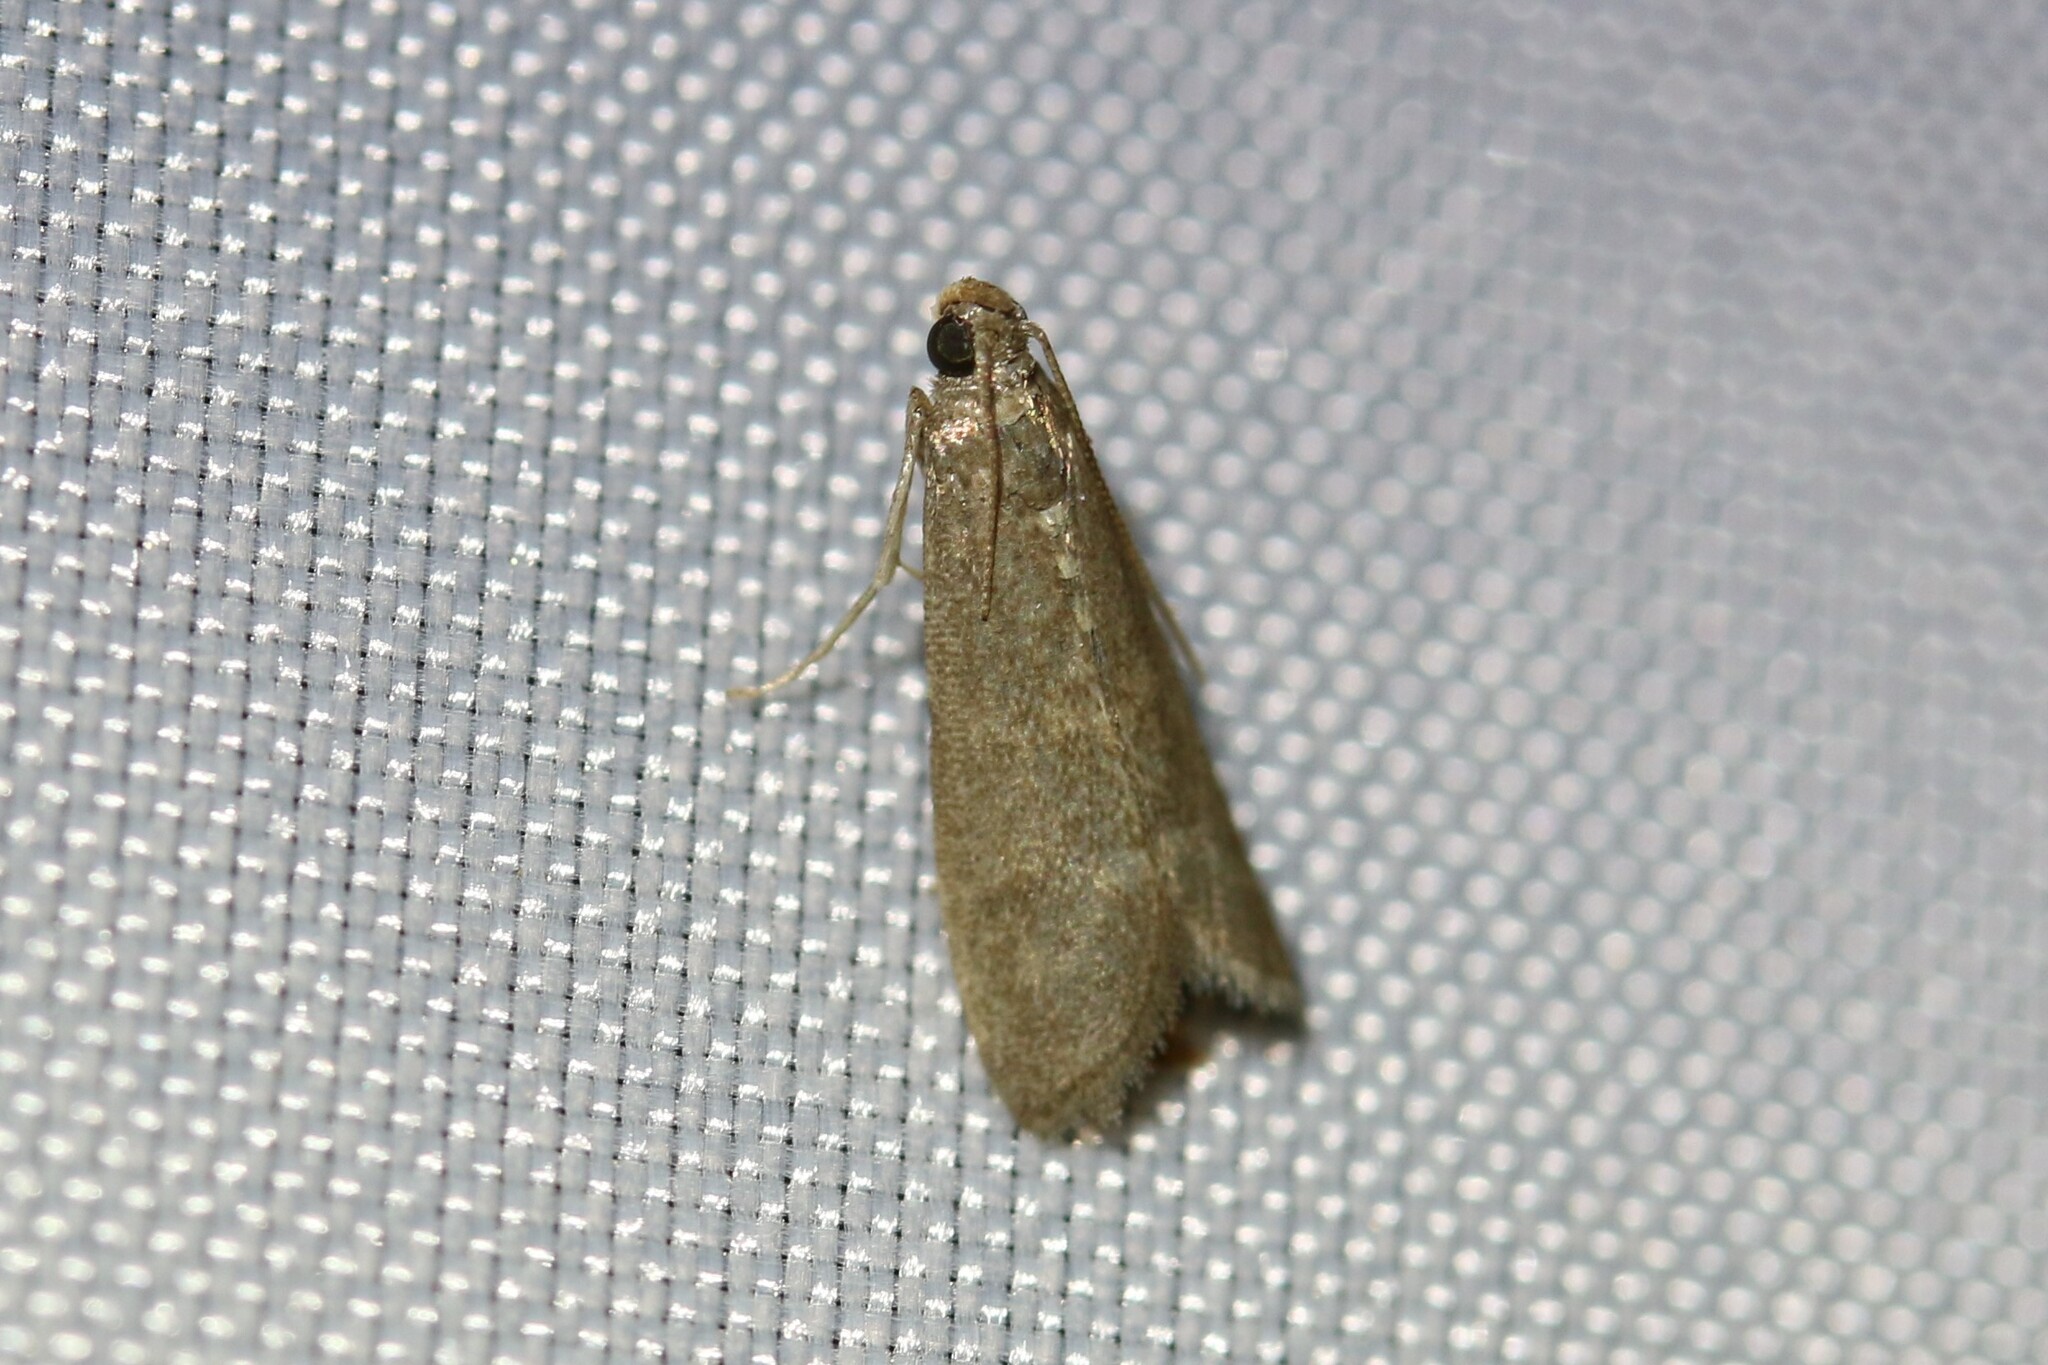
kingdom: Animalia
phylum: Arthropoda
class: Insecta
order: Lepidoptera
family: Pyralidae
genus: Eccopisa
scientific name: Eccopisa effractella
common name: Royal knot-horn
